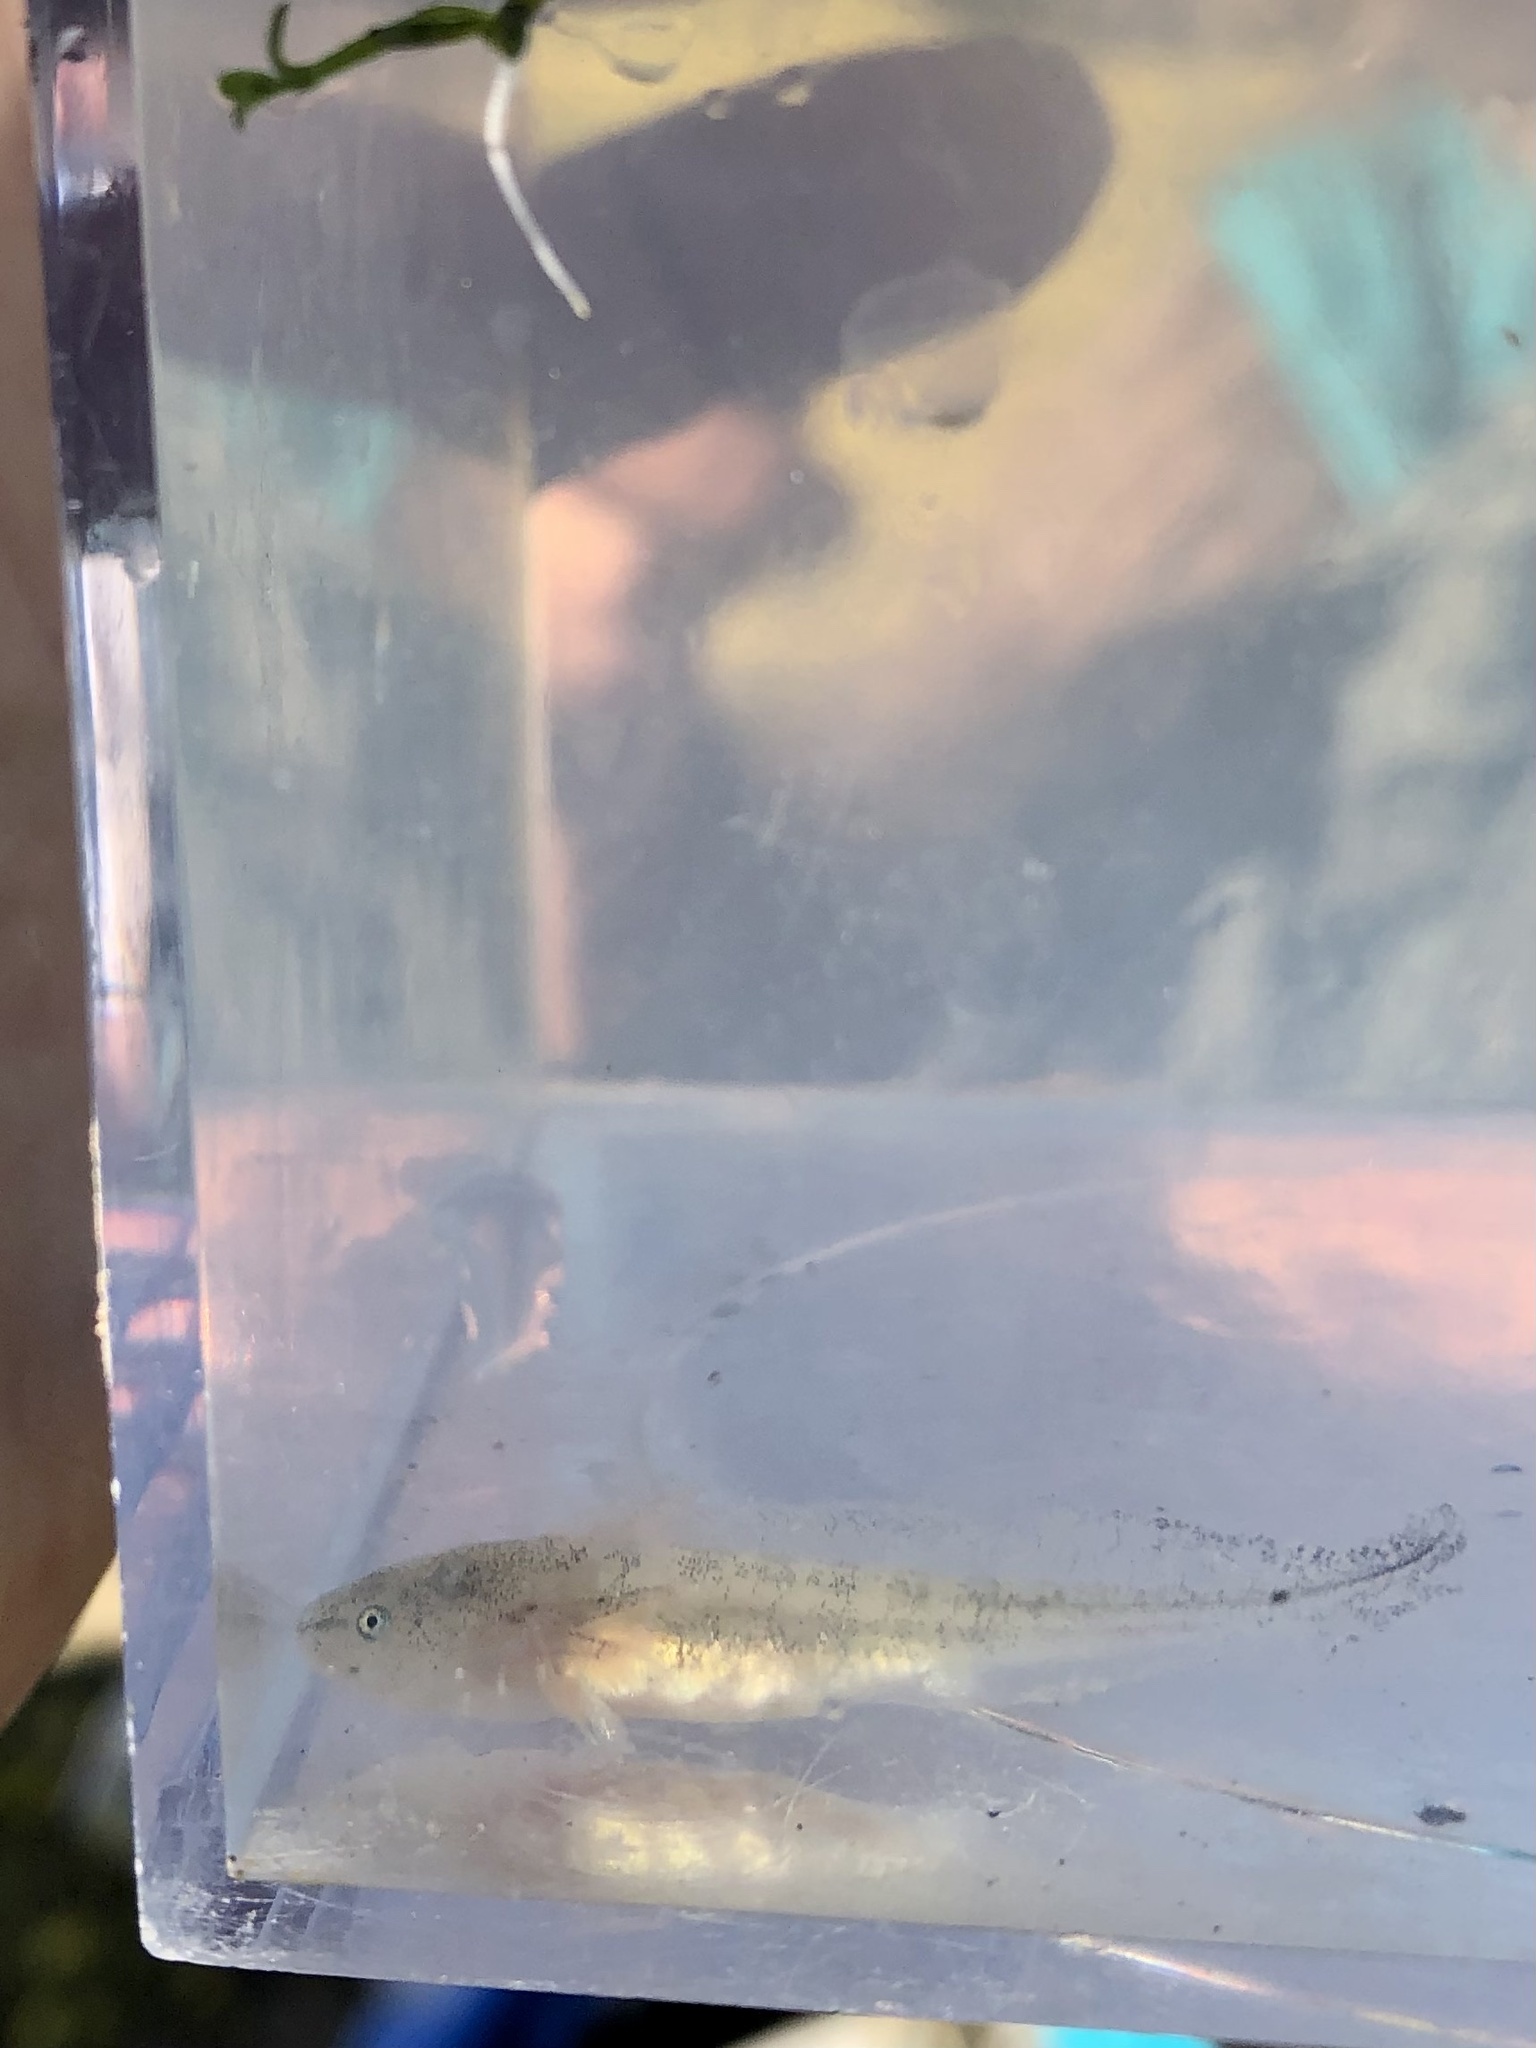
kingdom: Animalia
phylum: Chordata
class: Amphibia
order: Caudata
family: Ambystomatidae
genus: Ambystoma
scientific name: Ambystoma californiense
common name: California tiger salamander
